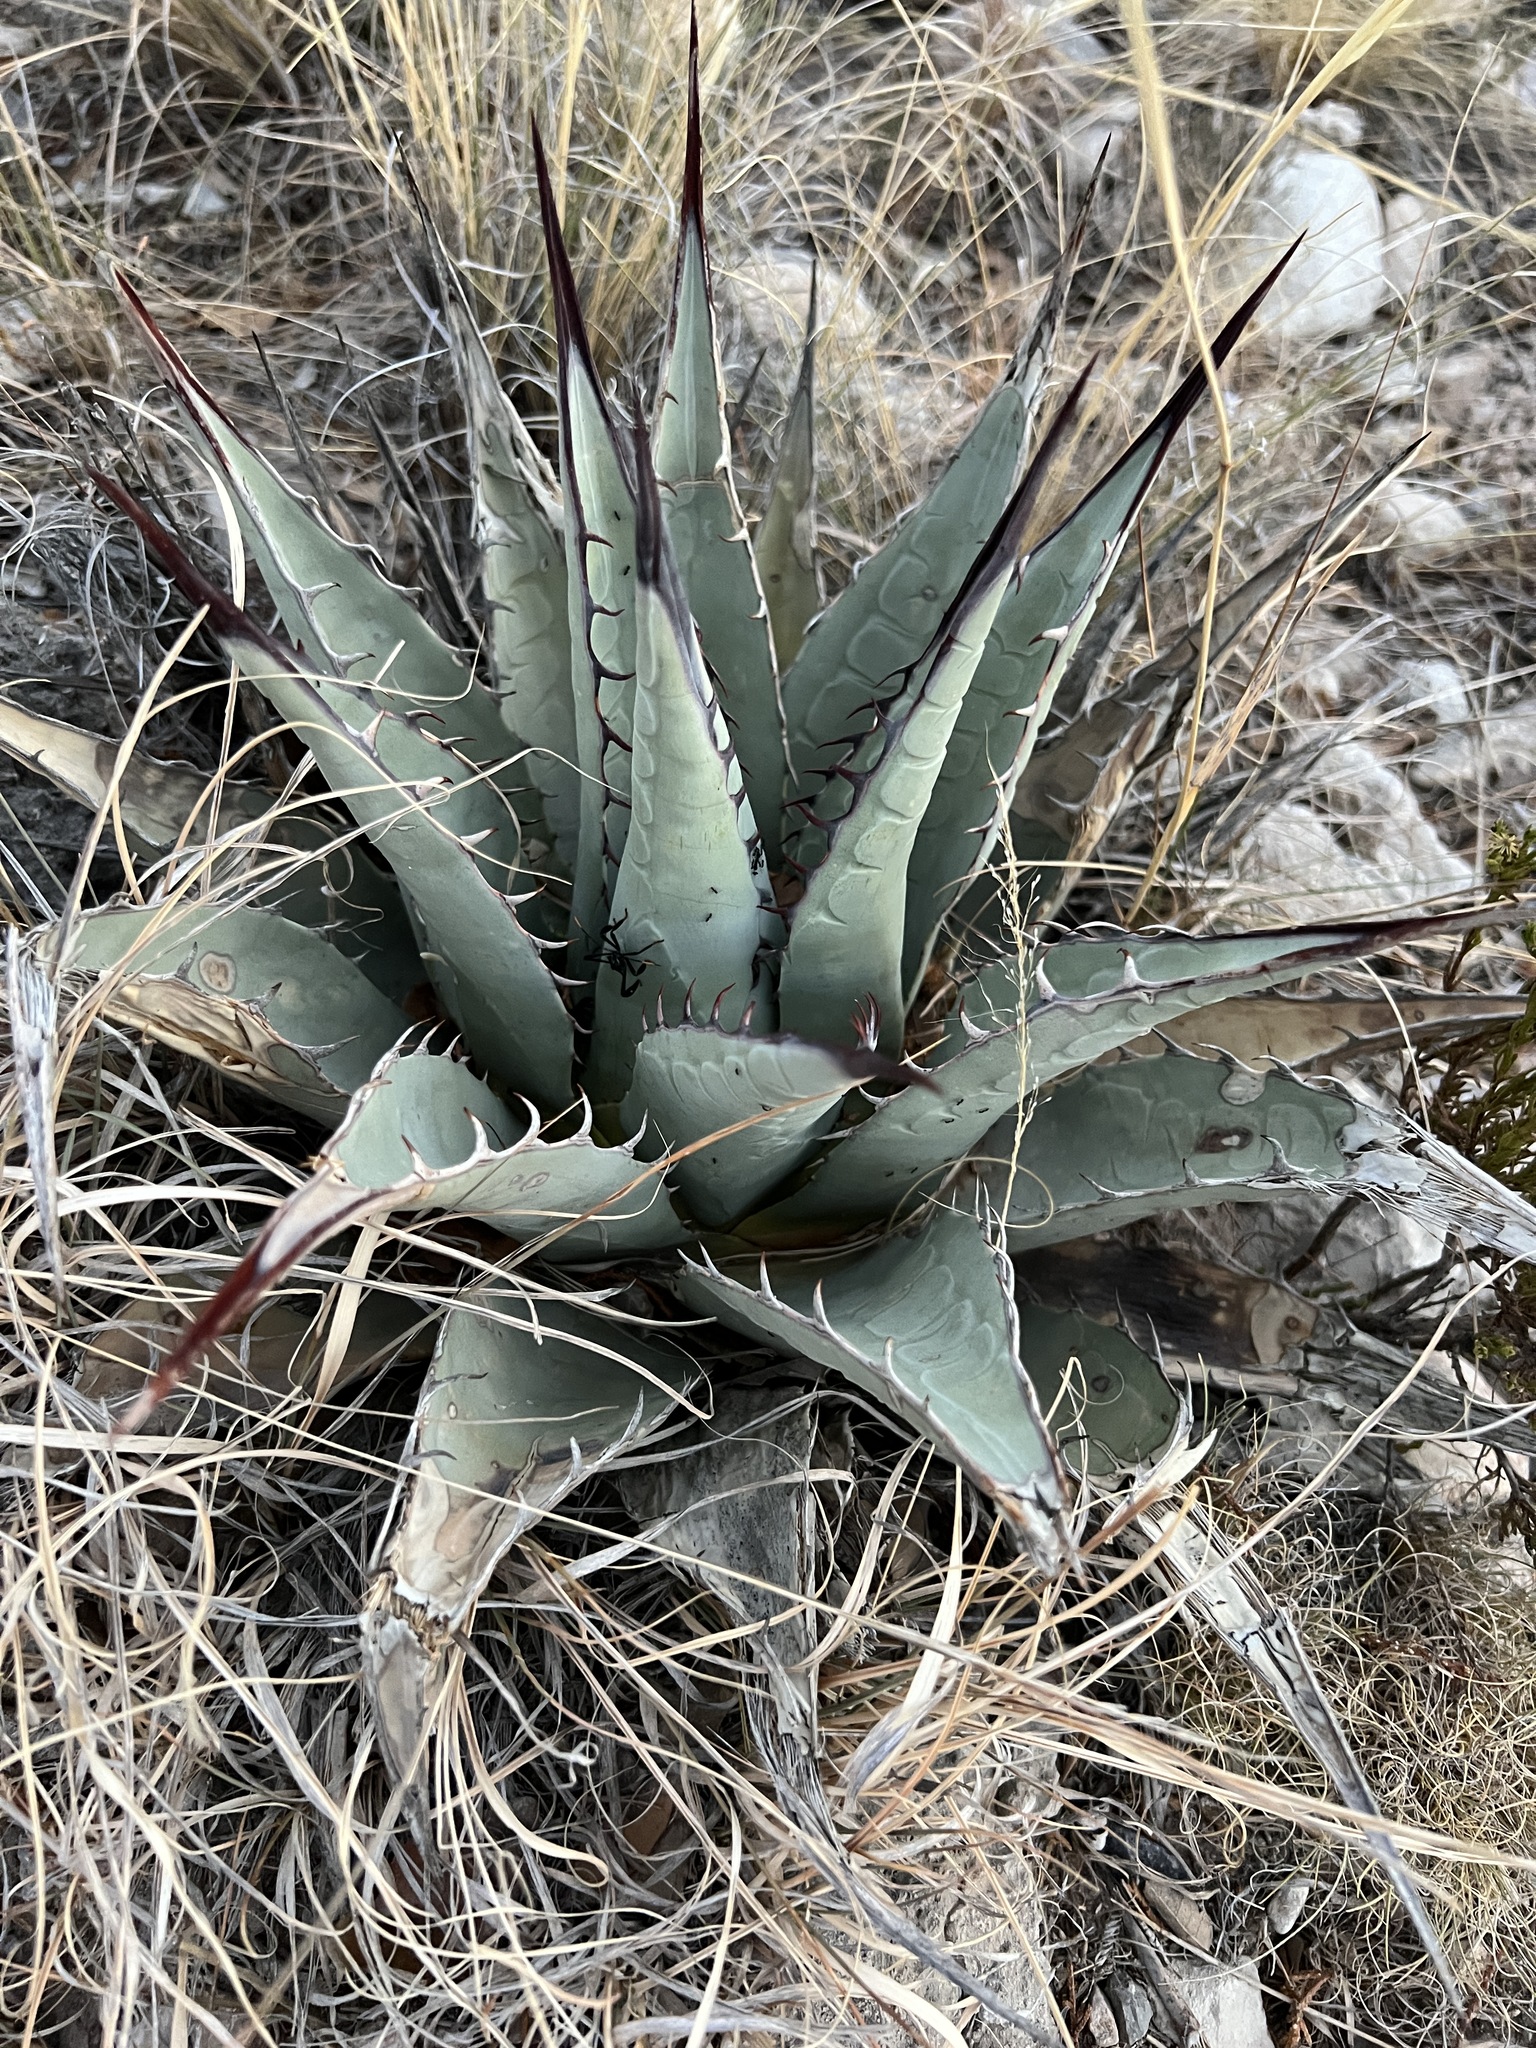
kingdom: Plantae
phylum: Tracheophyta
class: Liliopsida
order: Asparagales
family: Asparagaceae
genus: Agave
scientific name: Agave parryi
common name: Parry's agave
